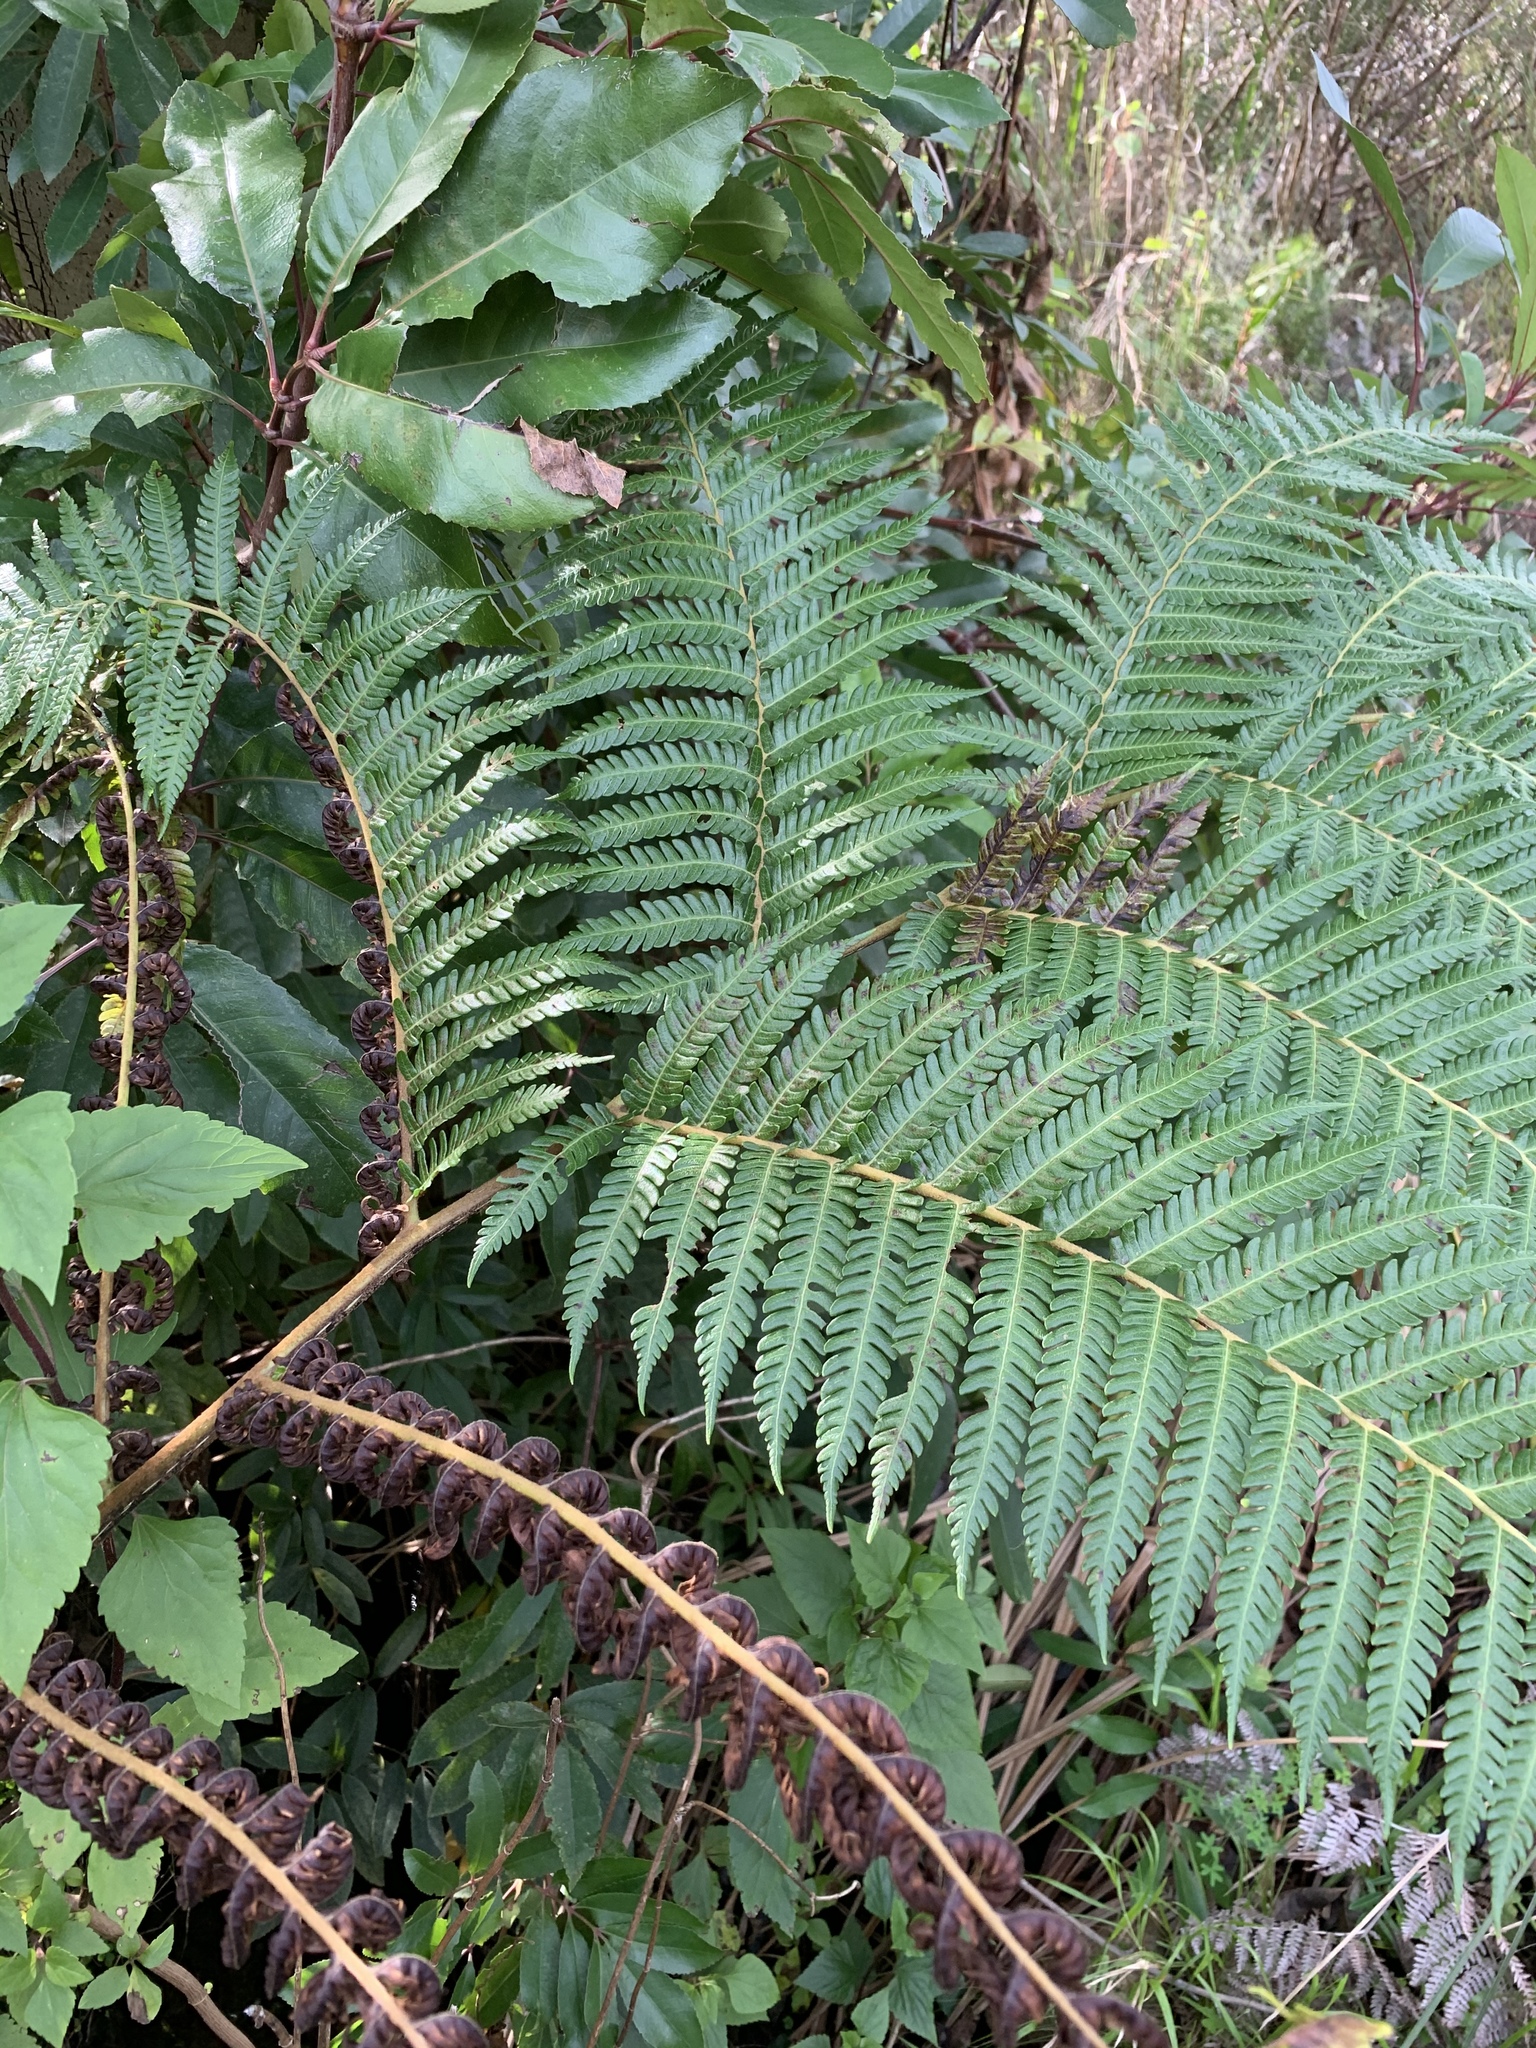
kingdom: Plantae
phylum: Tracheophyta
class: Polypodiopsida
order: Cyatheales
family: Cyatheaceae
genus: Sphaeropteris
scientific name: Sphaeropteris cooperi
